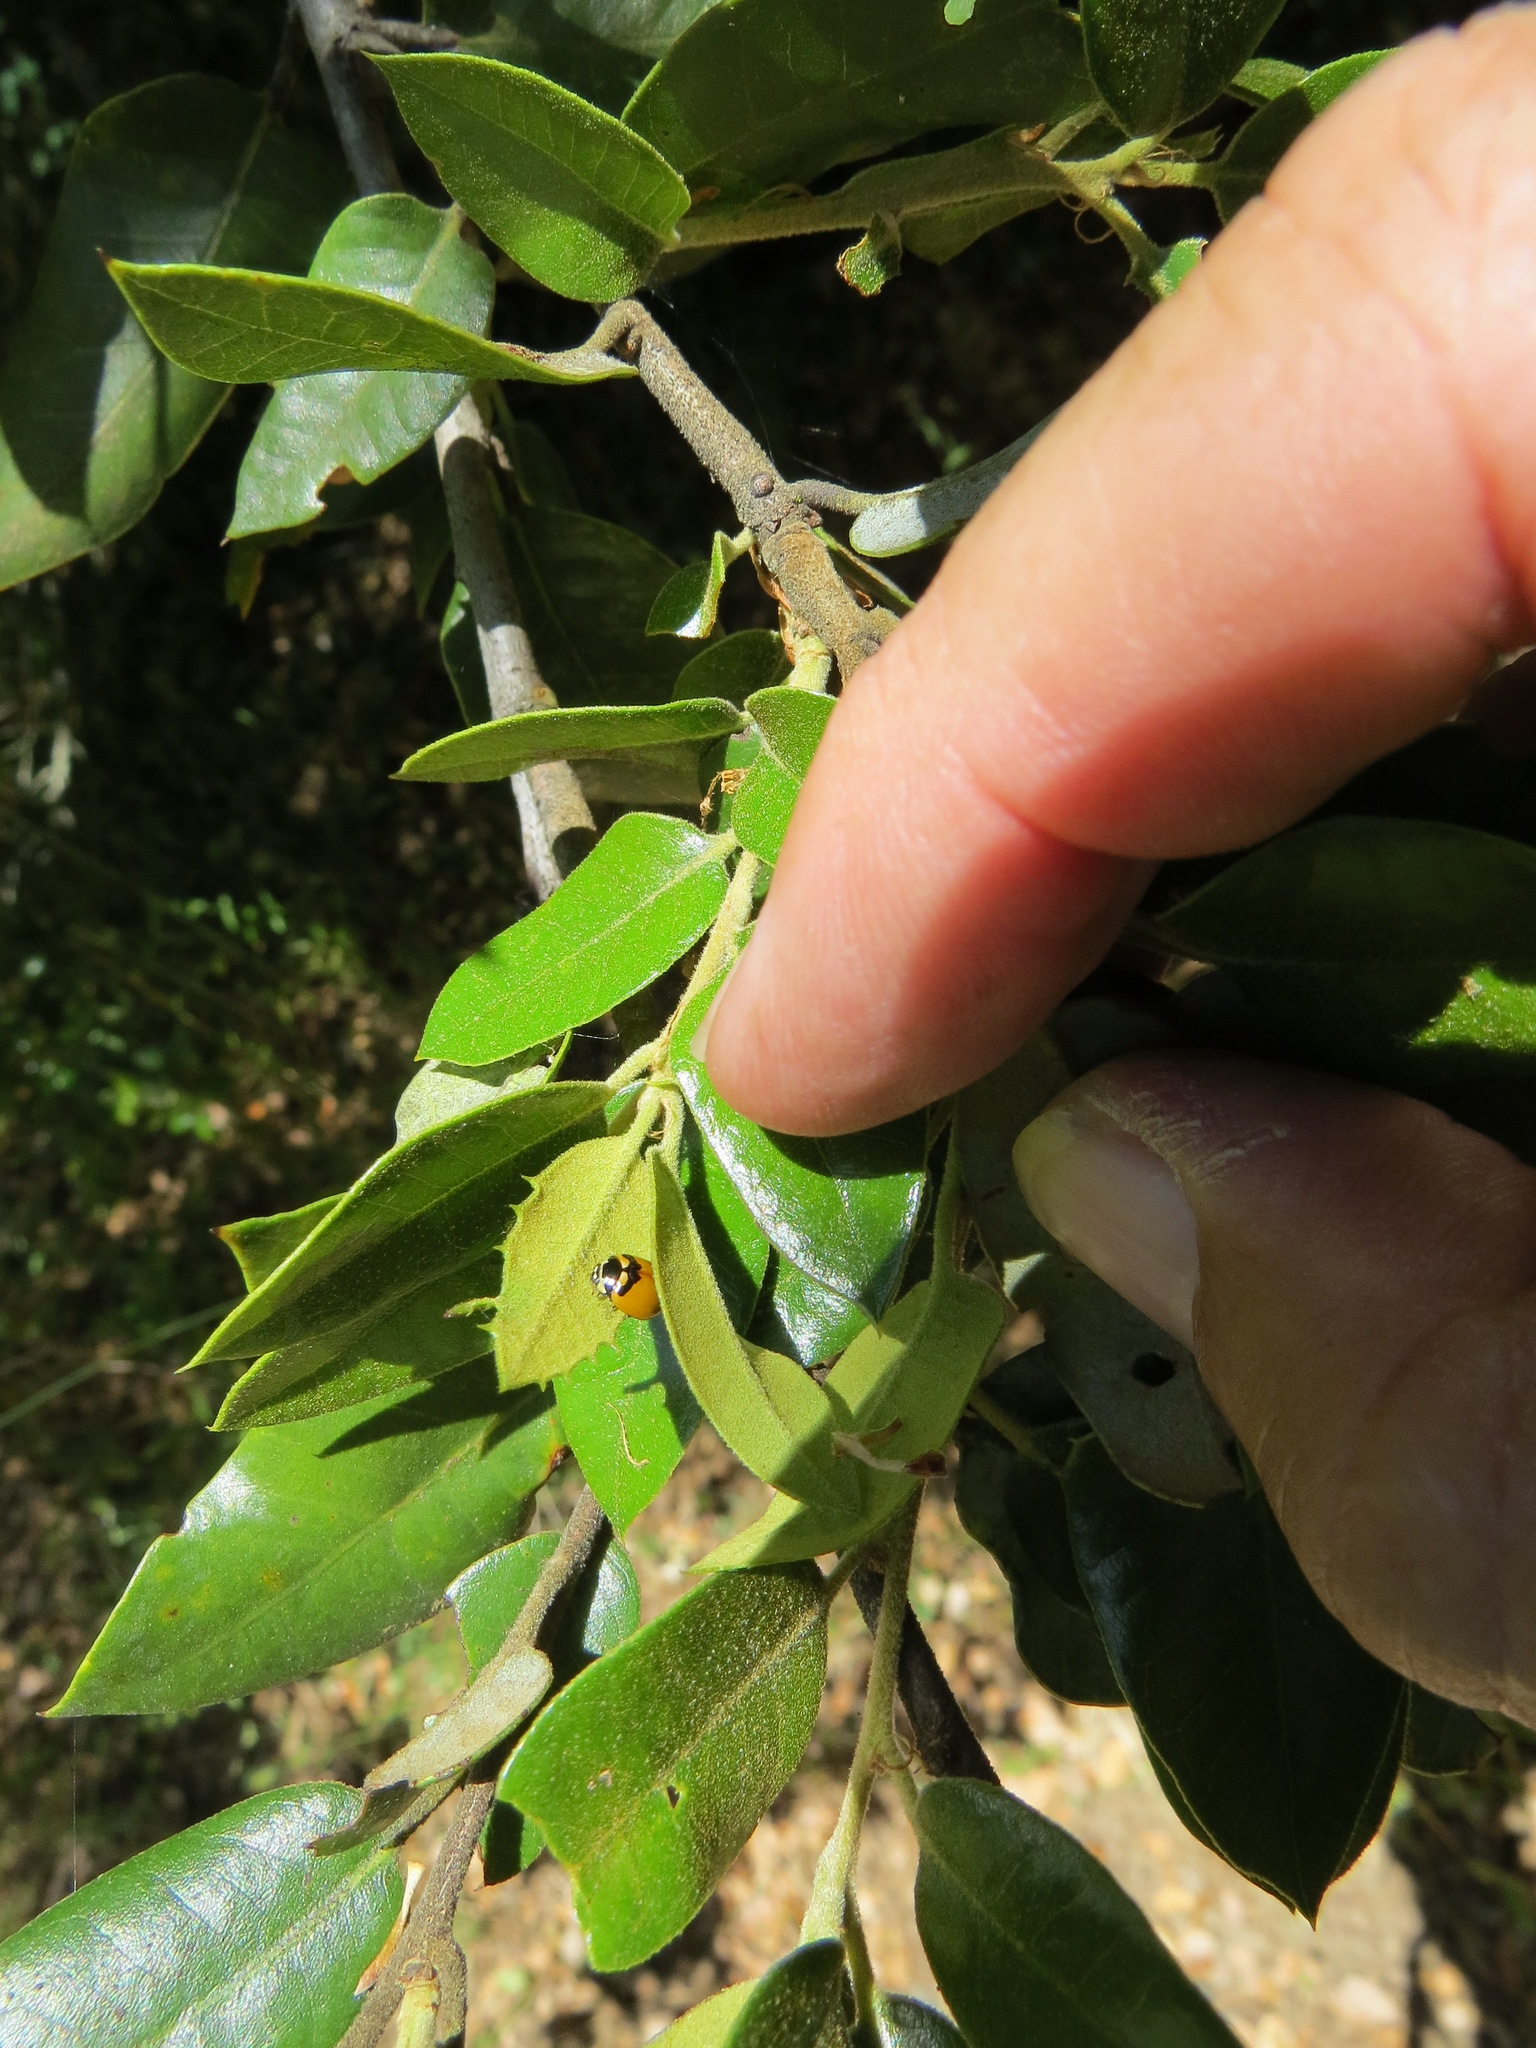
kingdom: Animalia
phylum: Arthropoda
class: Insecta
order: Coleoptera
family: Coccinellidae
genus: Coccinella
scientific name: Coccinella trifasciata
